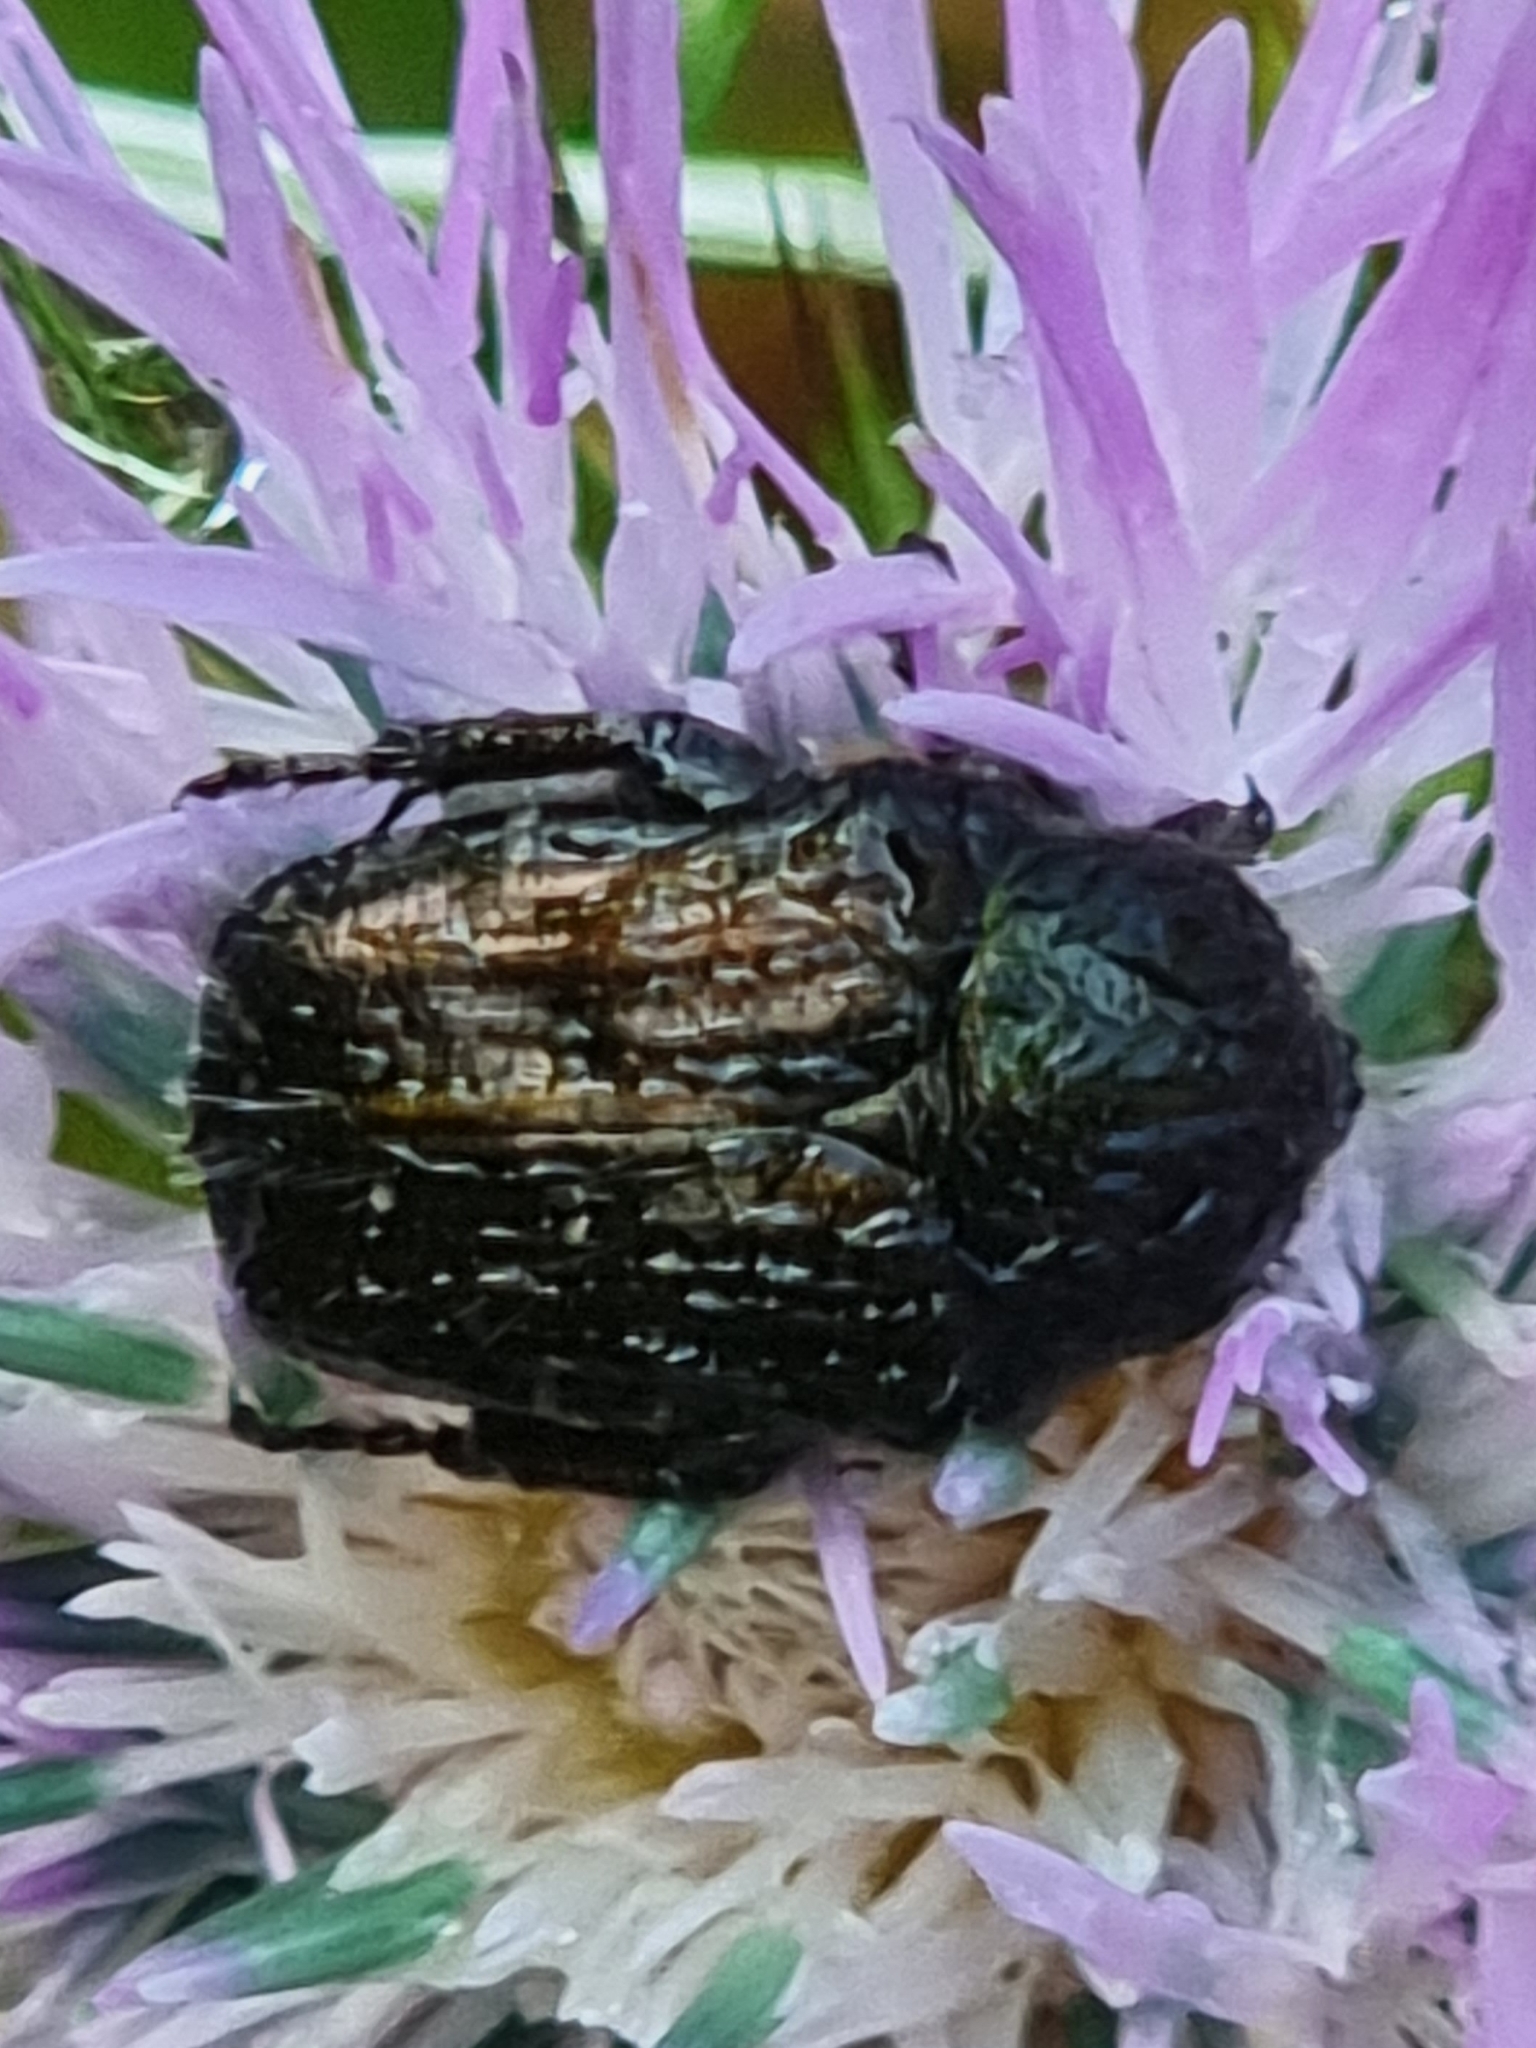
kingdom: Animalia
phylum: Arthropoda
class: Insecta
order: Coleoptera
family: Scarabaeidae
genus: Oxythyrea
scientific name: Oxythyrea funesta
